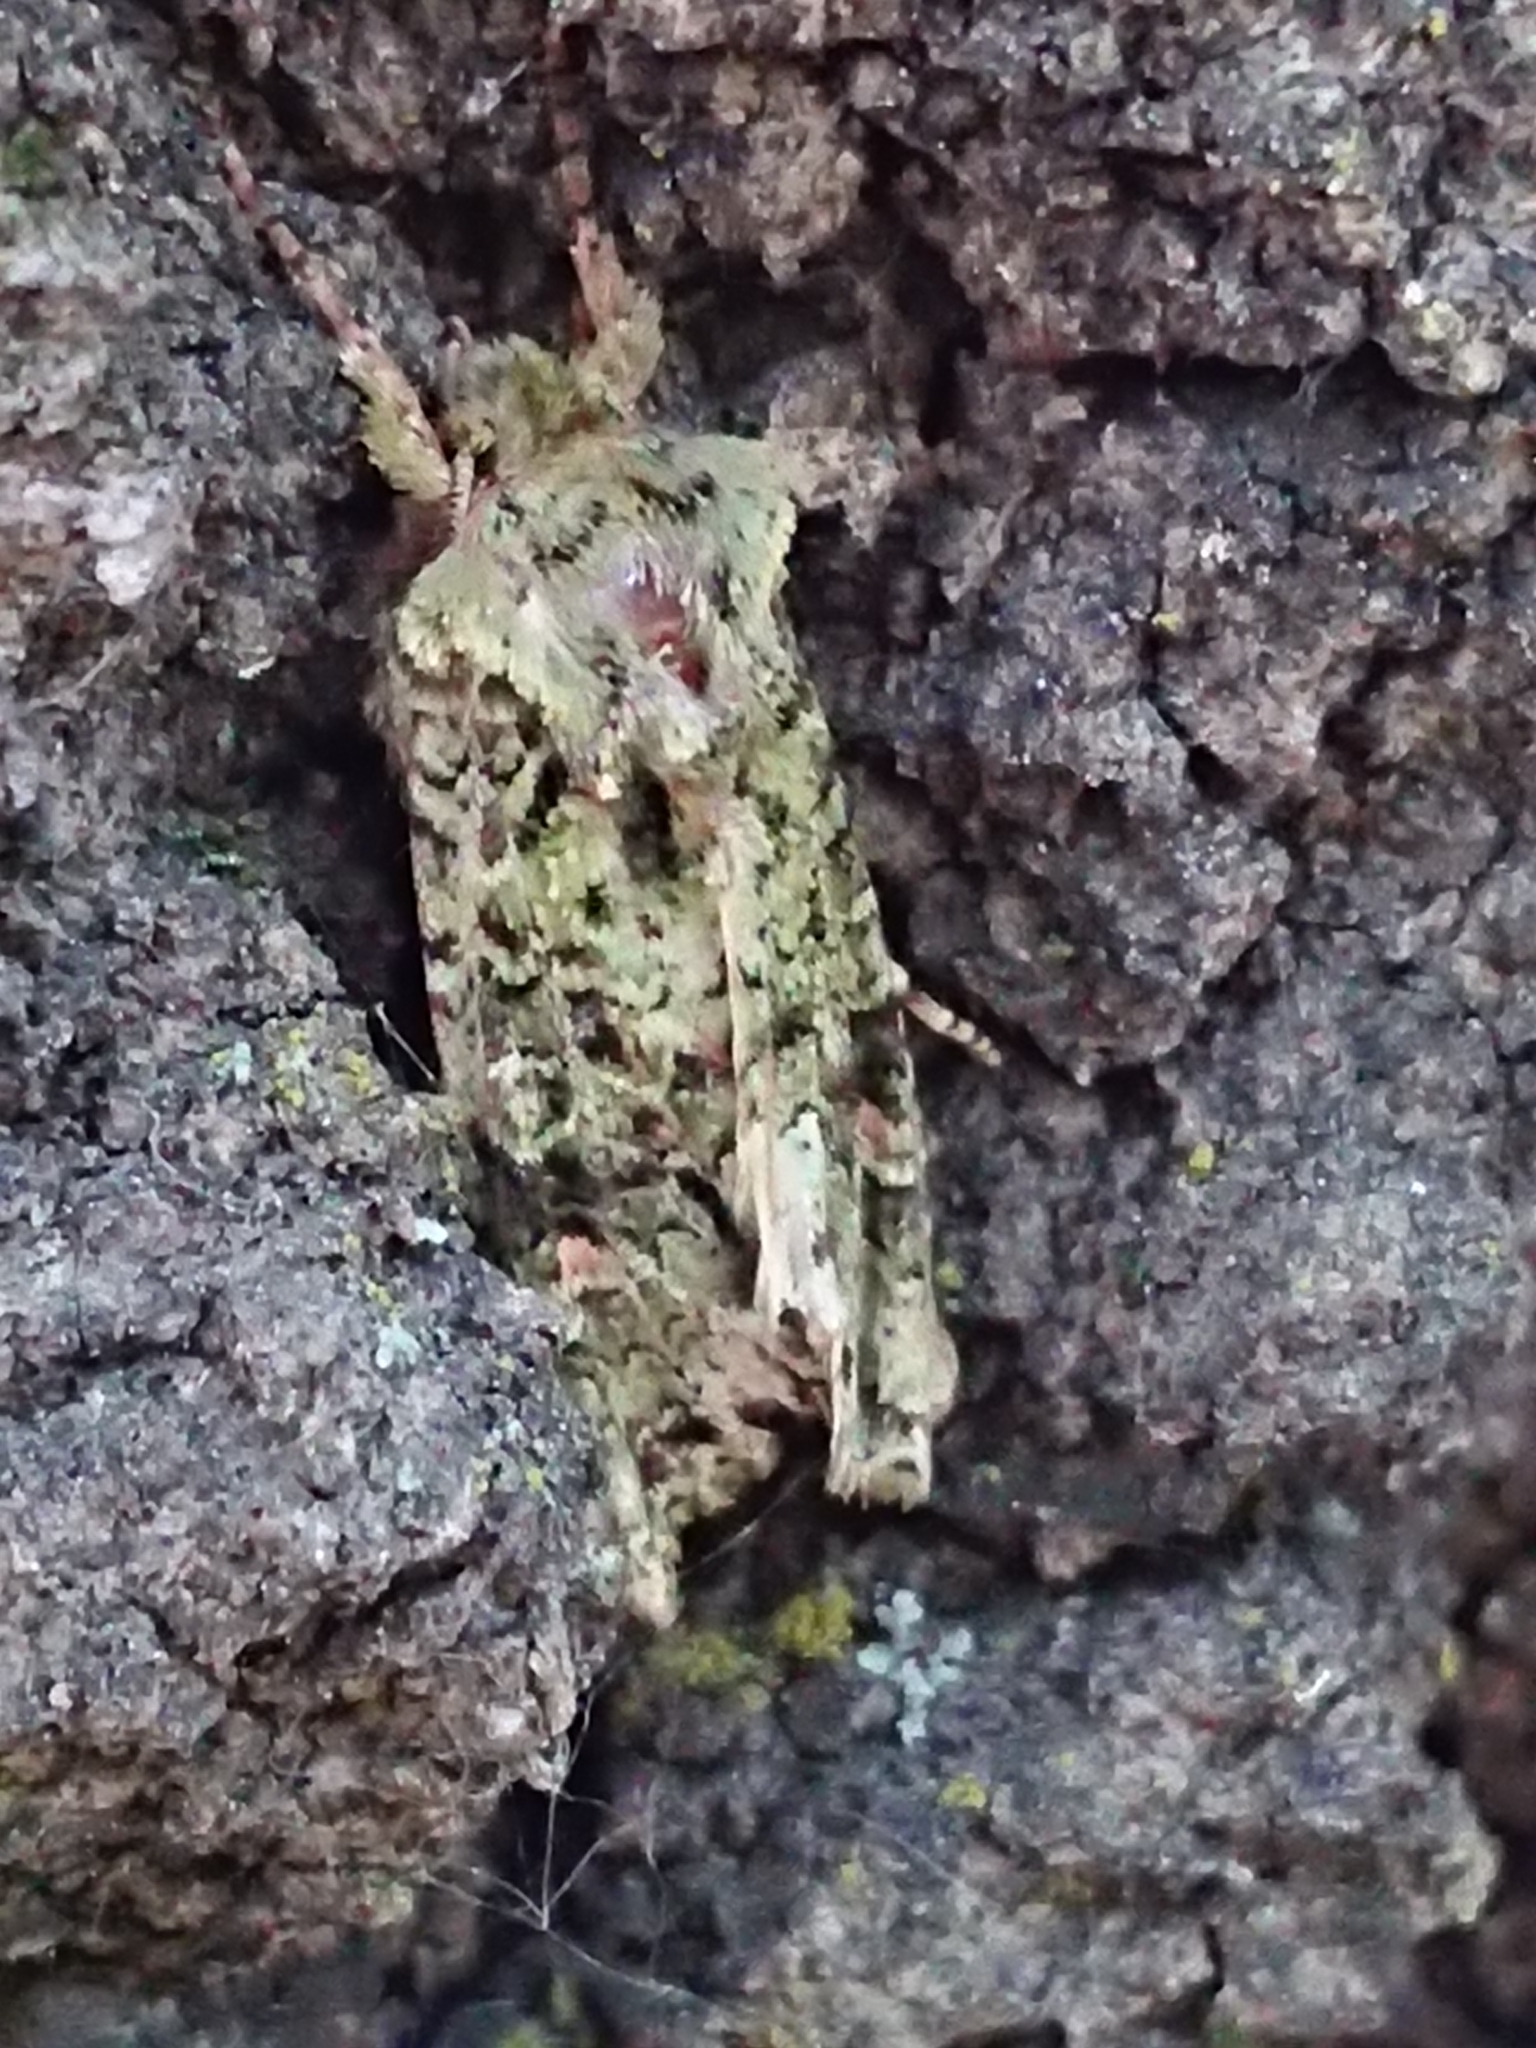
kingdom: Animalia
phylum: Arthropoda
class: Insecta
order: Lepidoptera
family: Noctuidae
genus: Ichneutica
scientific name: Ichneutica
